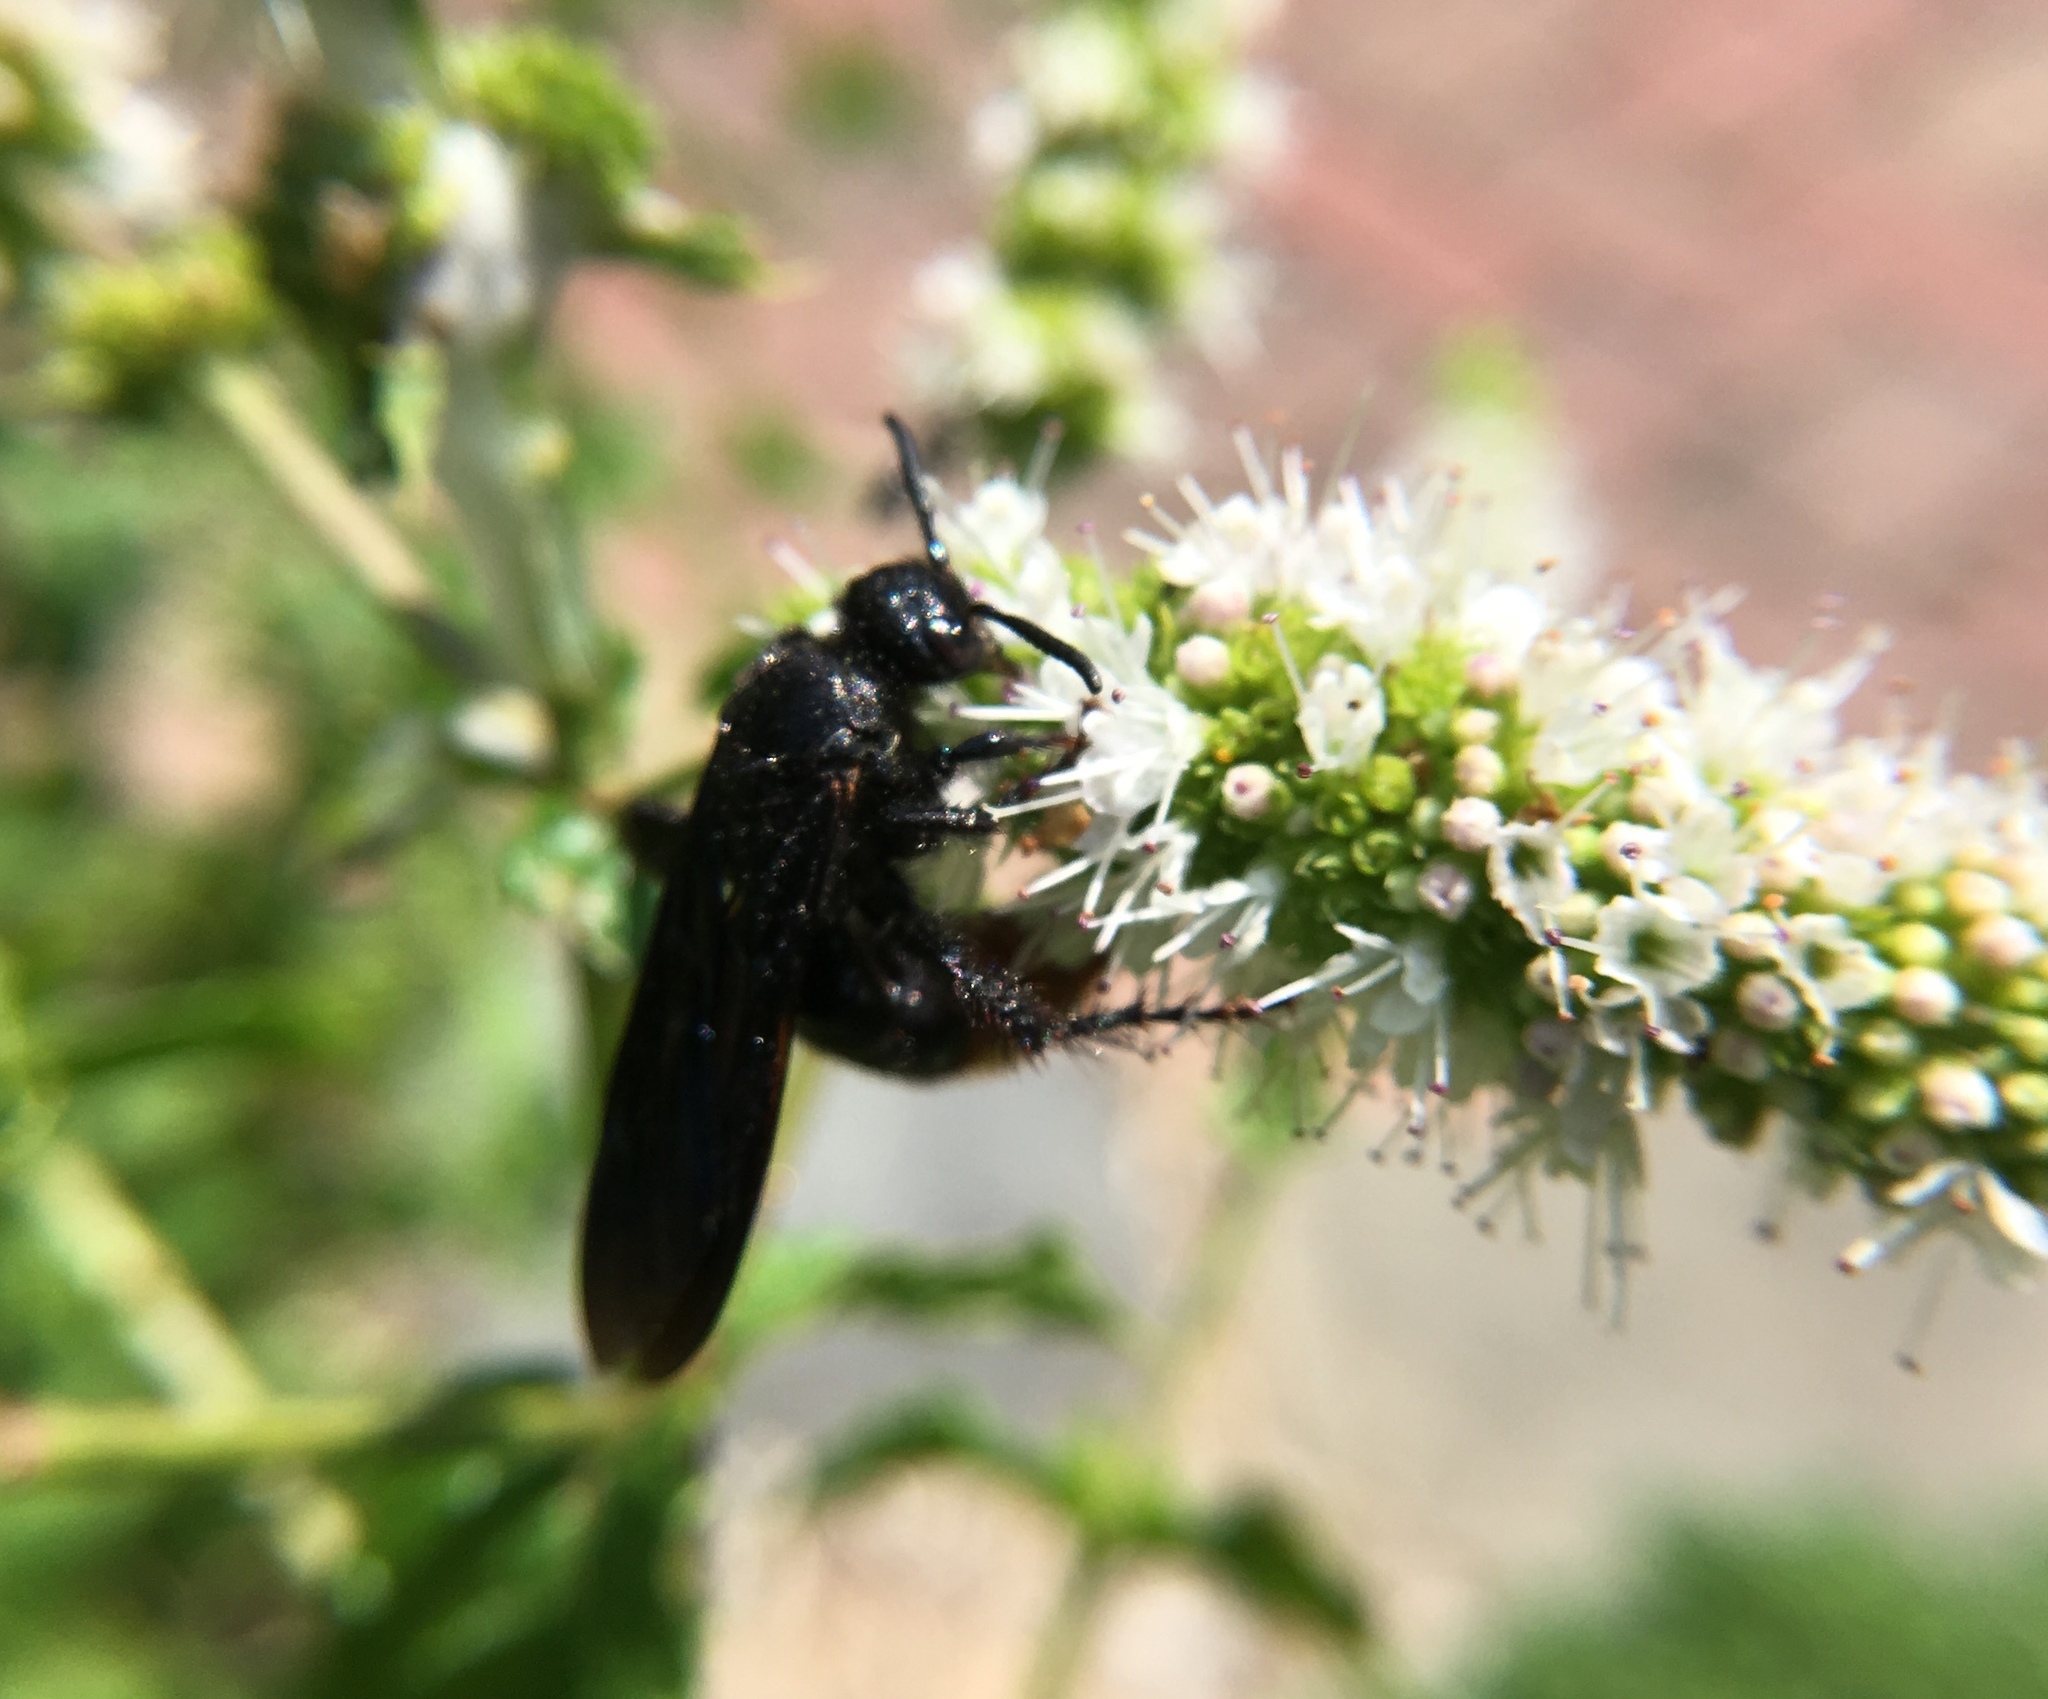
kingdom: Animalia
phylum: Arthropoda
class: Insecta
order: Hymenoptera
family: Scoliidae
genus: Scolia
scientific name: Scolia dubia
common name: Blue-winged scoliid wasp
